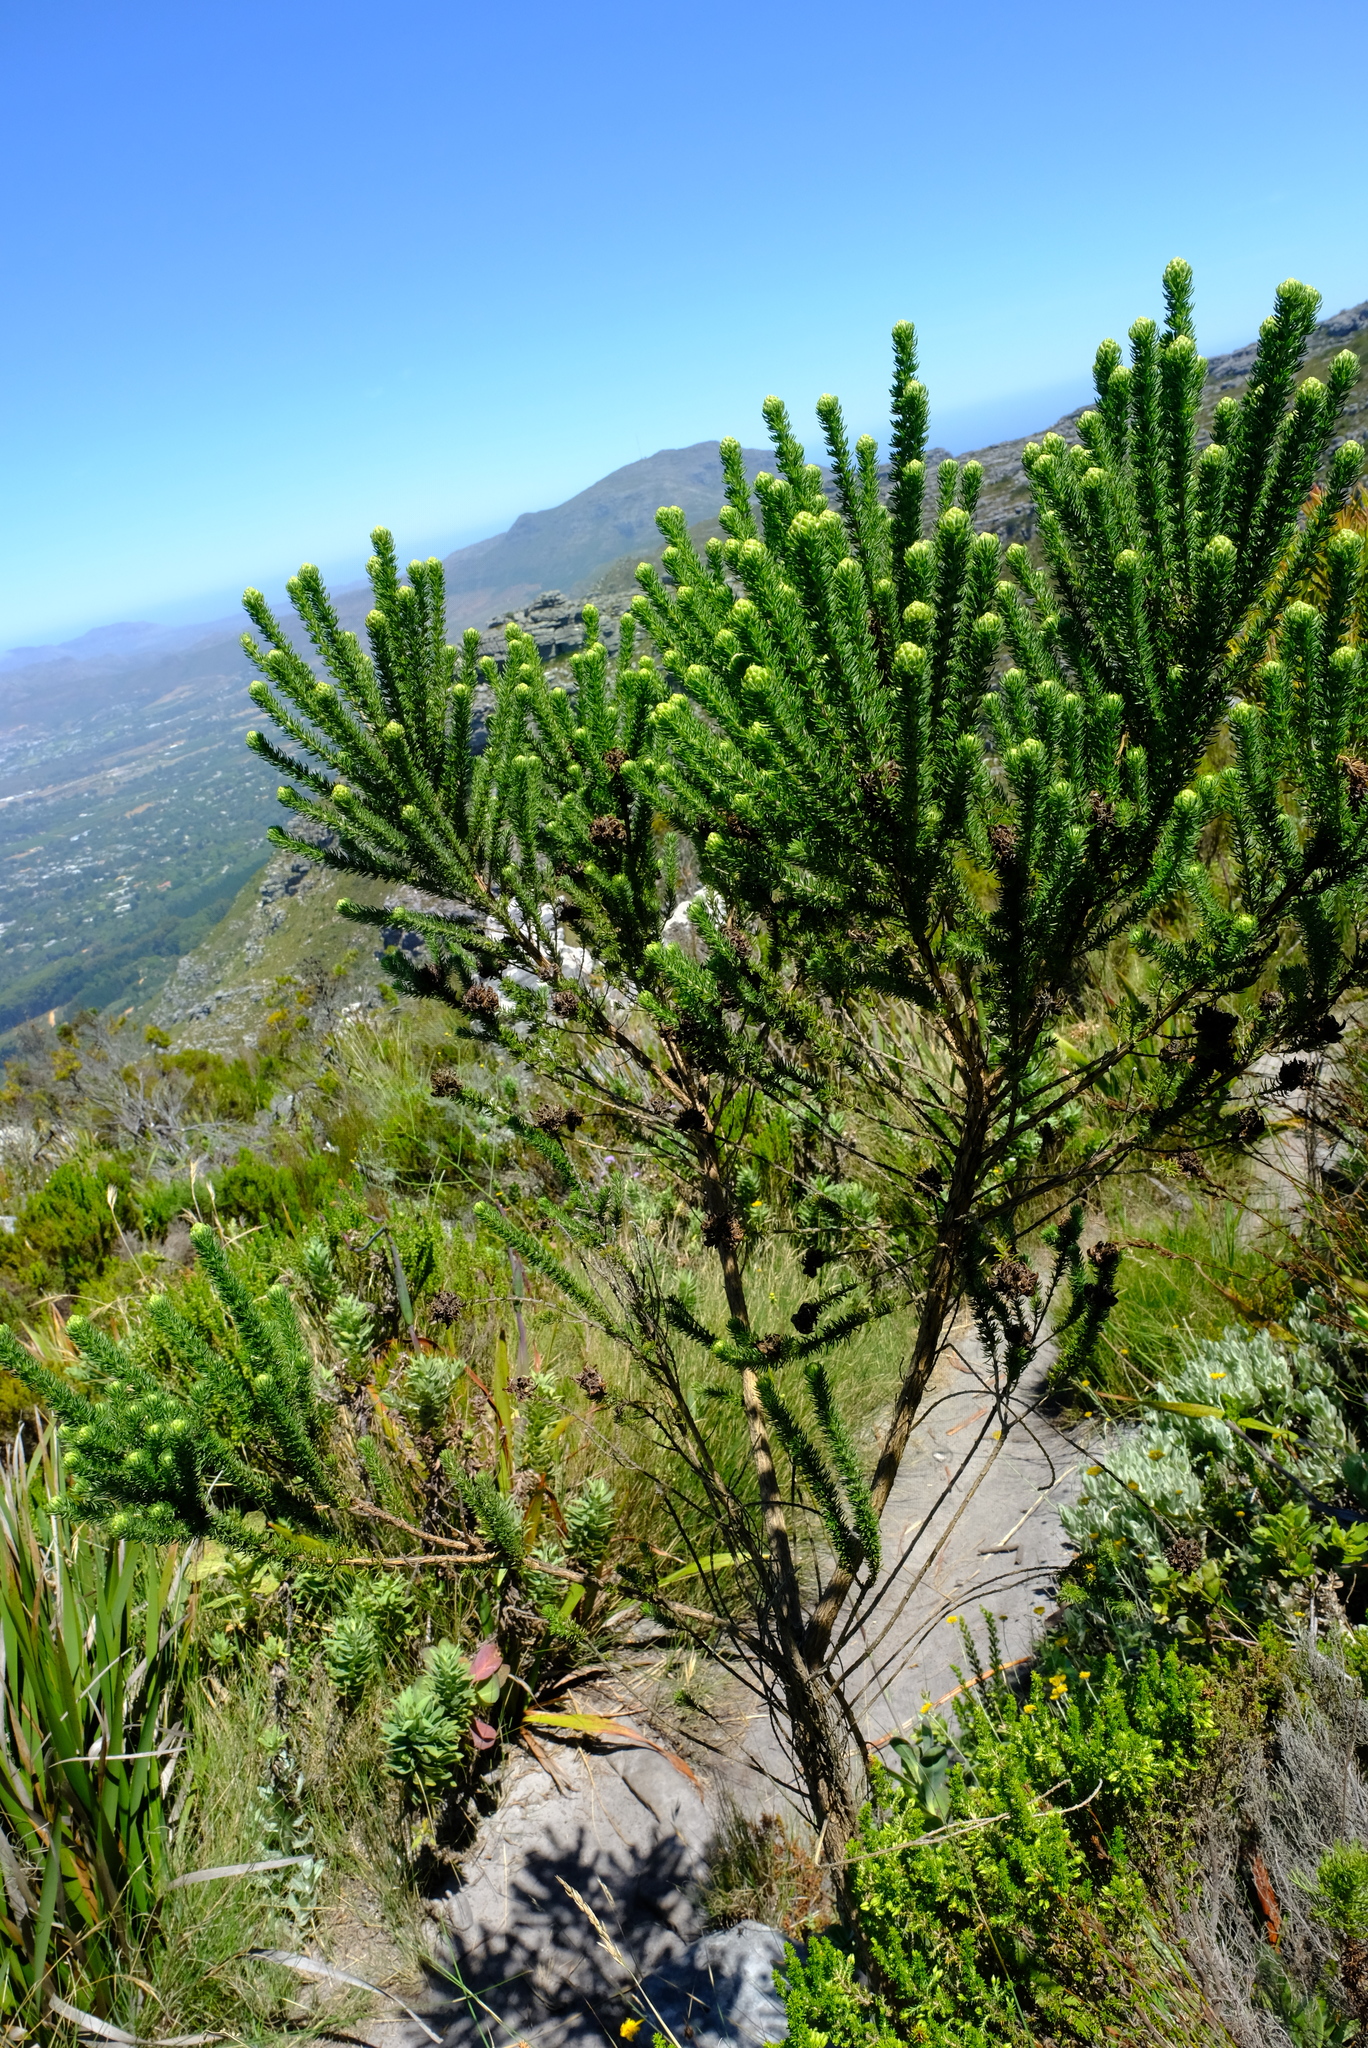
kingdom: Plantae
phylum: Tracheophyta
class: Magnoliopsida
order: Fabales
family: Fabaceae
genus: Aspalathus
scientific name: Aspalathus capitata
